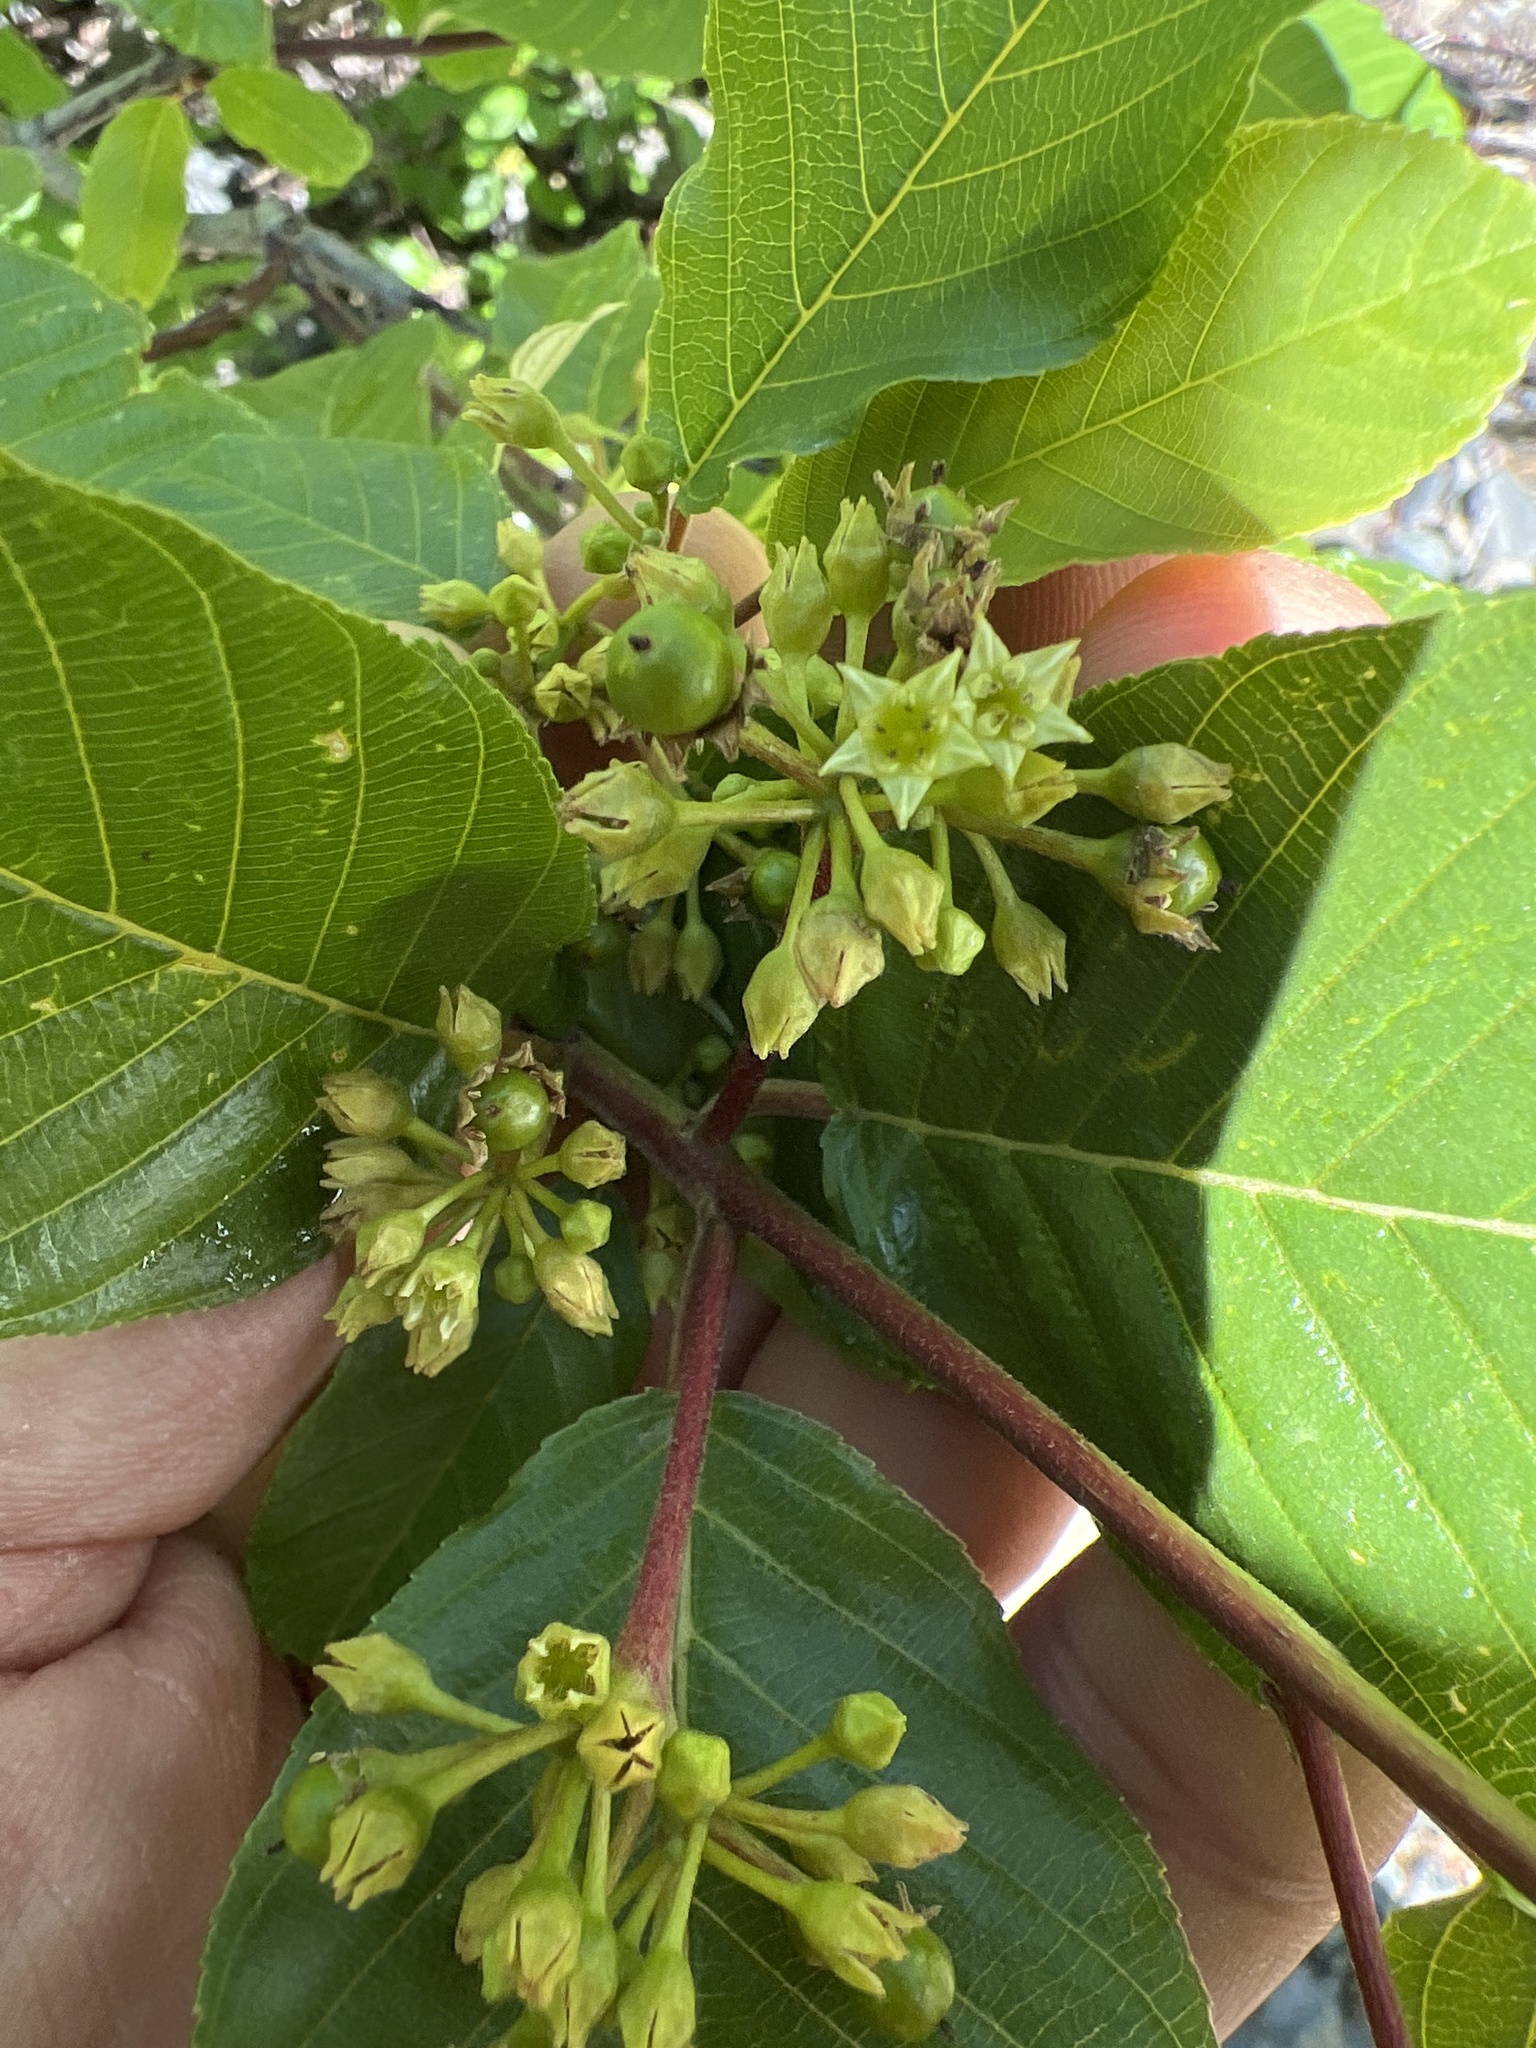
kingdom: Plantae
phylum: Tracheophyta
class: Magnoliopsida
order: Rosales
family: Rhamnaceae
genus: Frangula
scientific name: Frangula purshiana
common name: Cascara buckthorn
